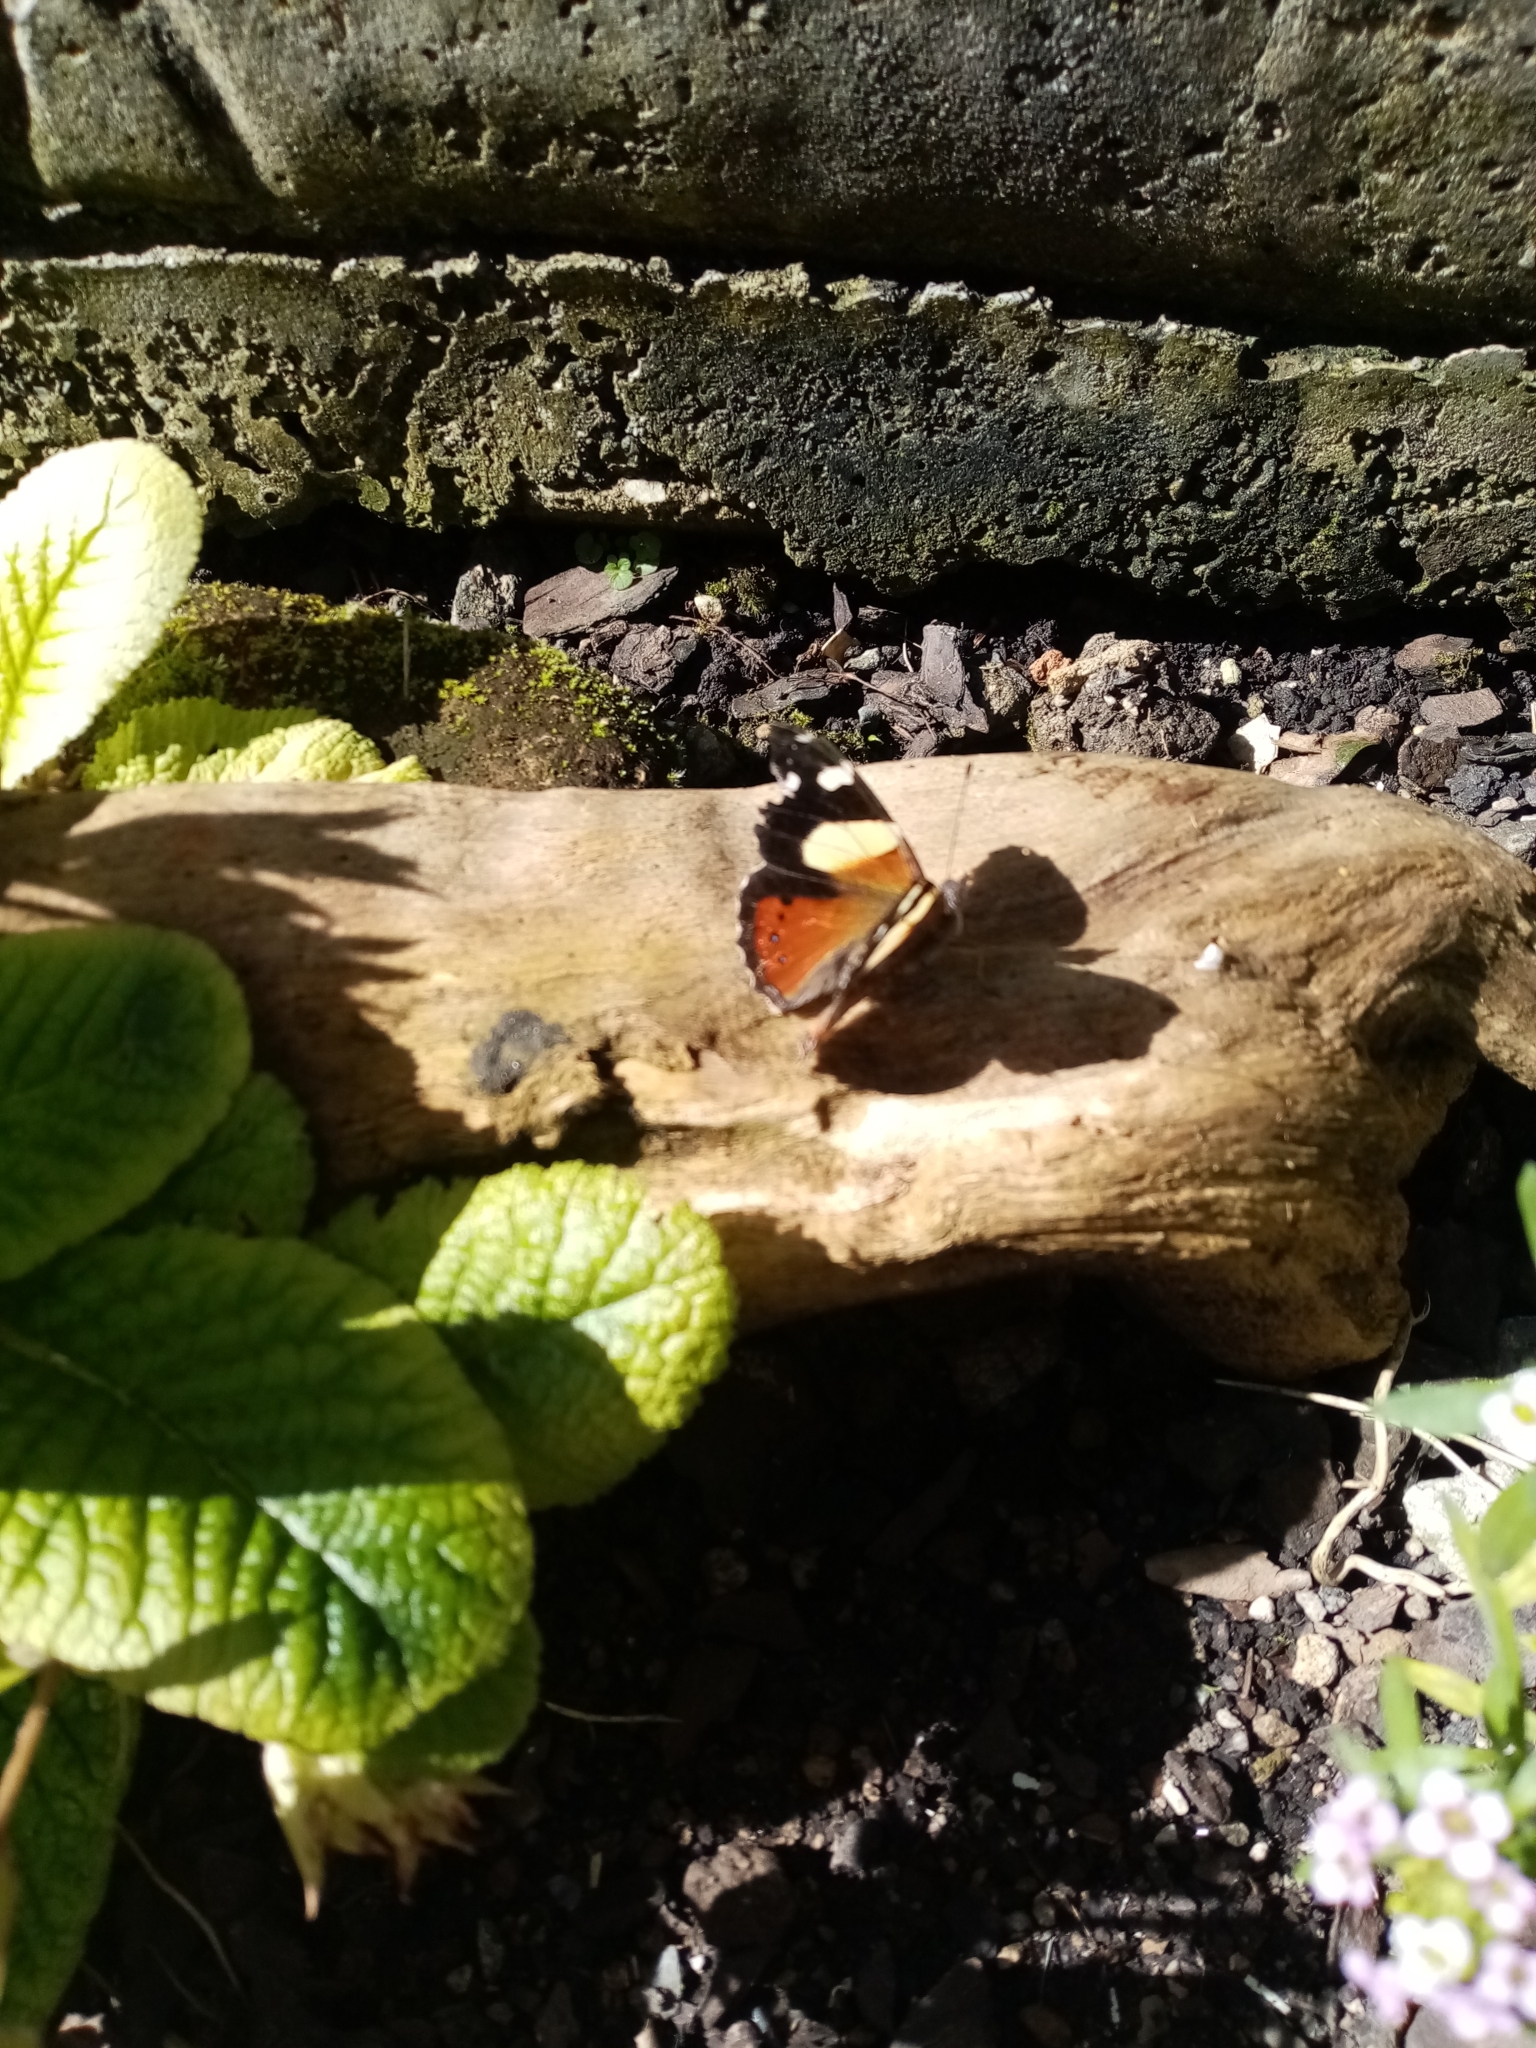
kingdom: Animalia
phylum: Arthropoda
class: Insecta
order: Lepidoptera
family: Nymphalidae
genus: Vanessa
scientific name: Vanessa itea
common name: Yellow admiral
